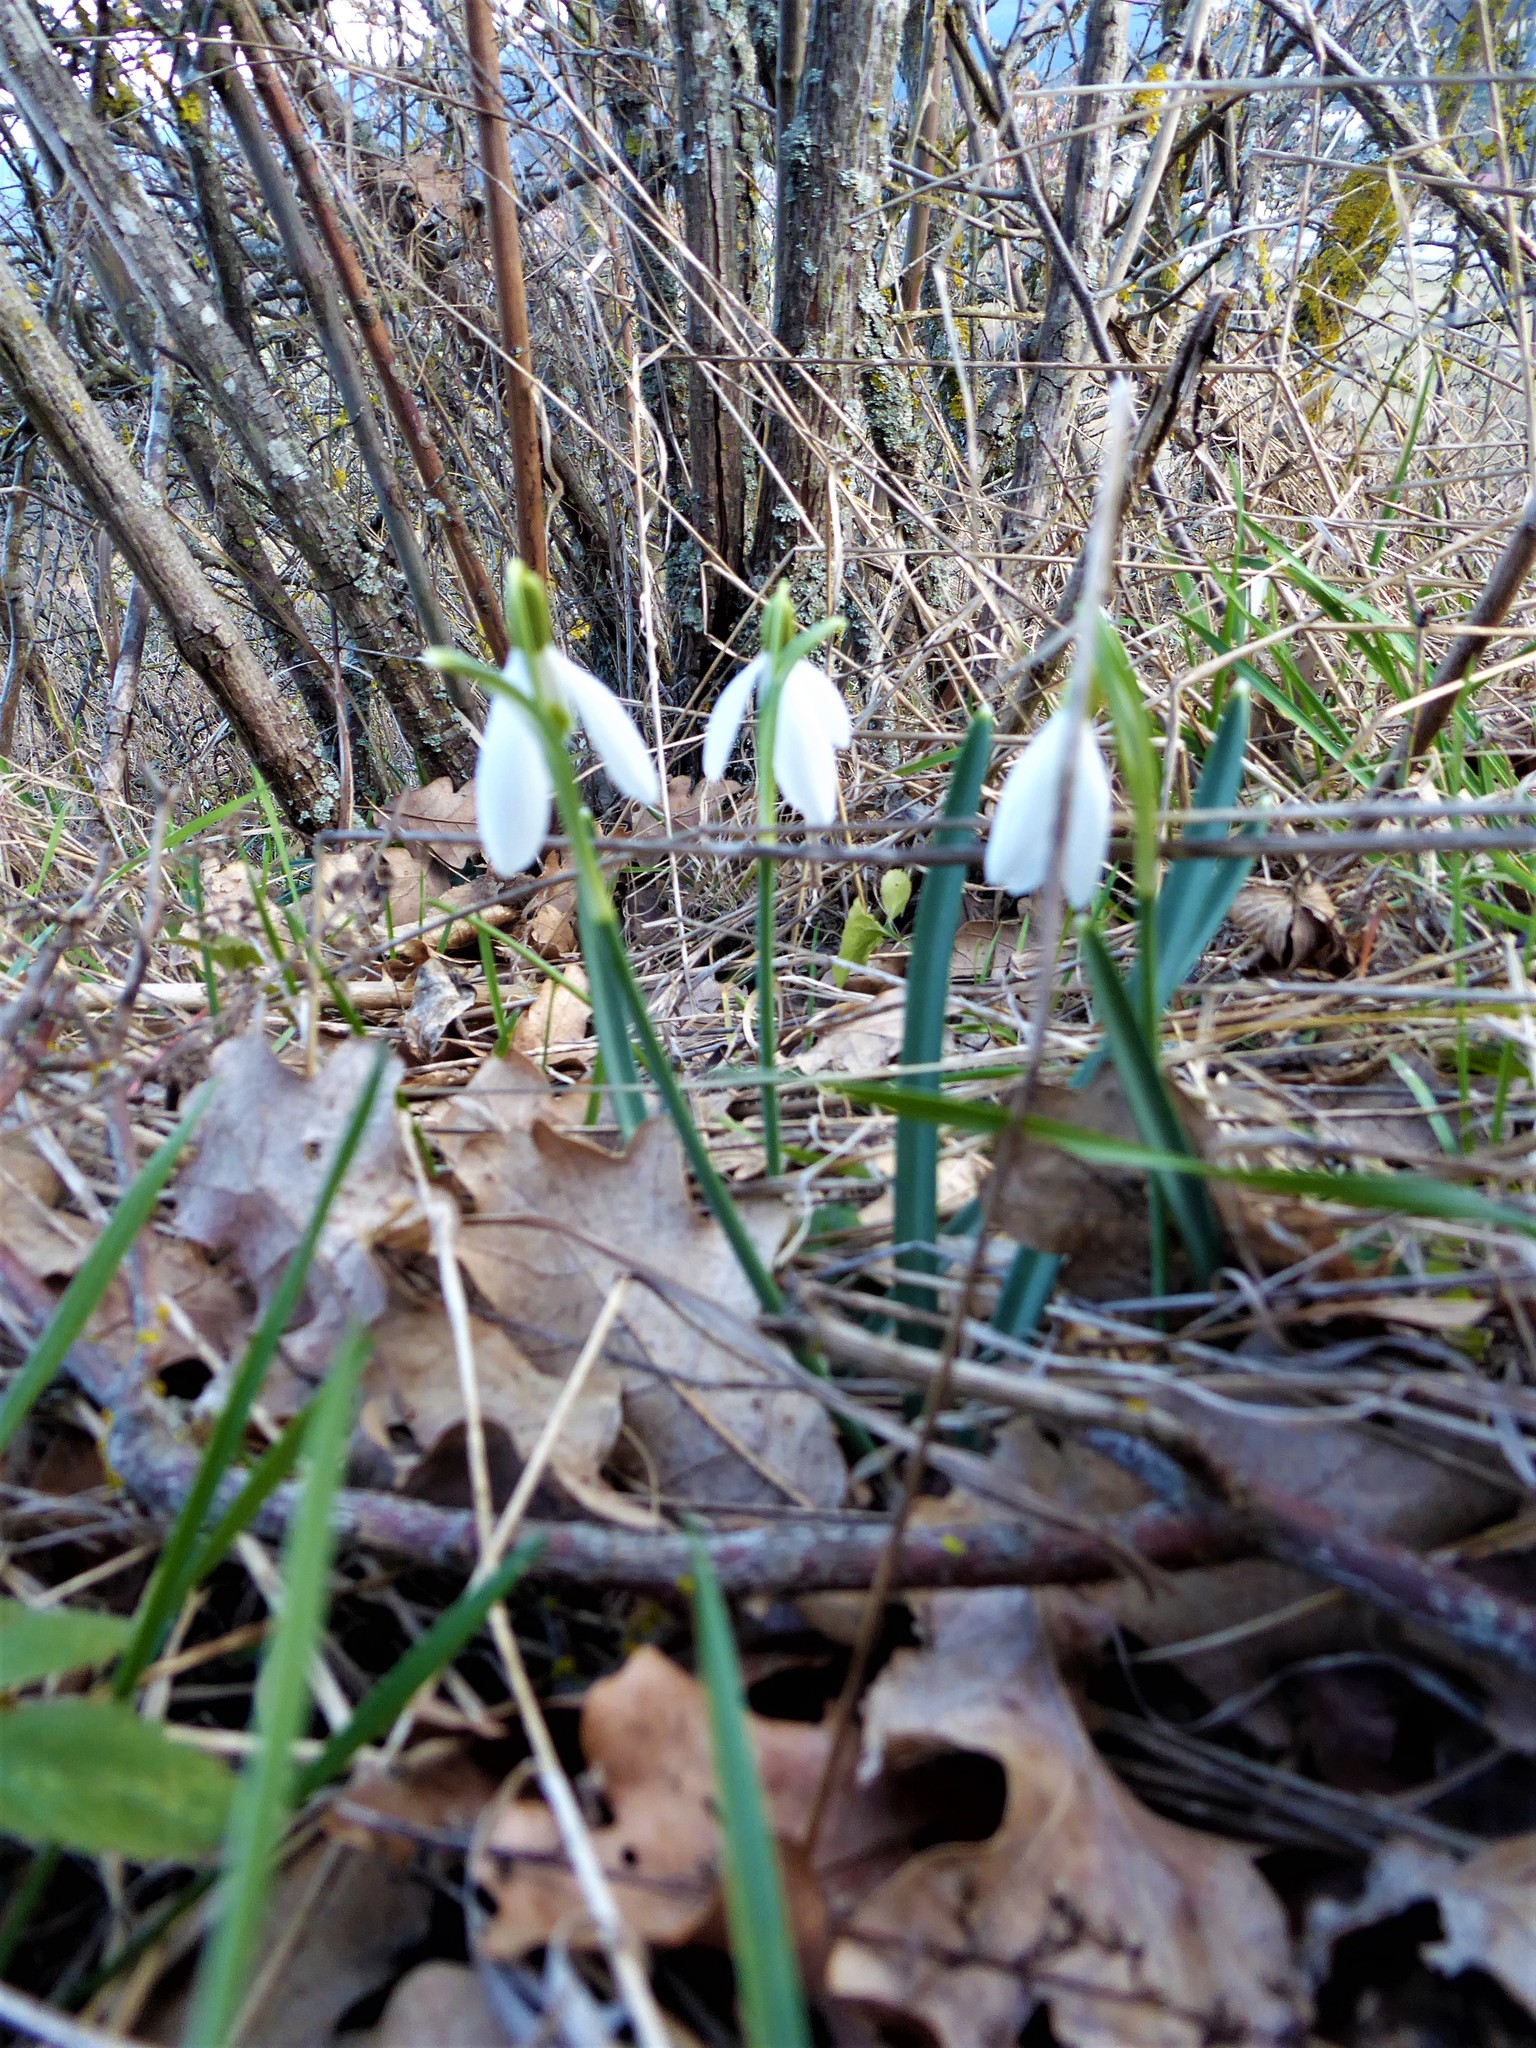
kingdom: Plantae
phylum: Tracheophyta
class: Liliopsida
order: Asparagales
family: Amaryllidaceae
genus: Galanthus
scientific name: Galanthus nivalis
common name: Snowdrop
